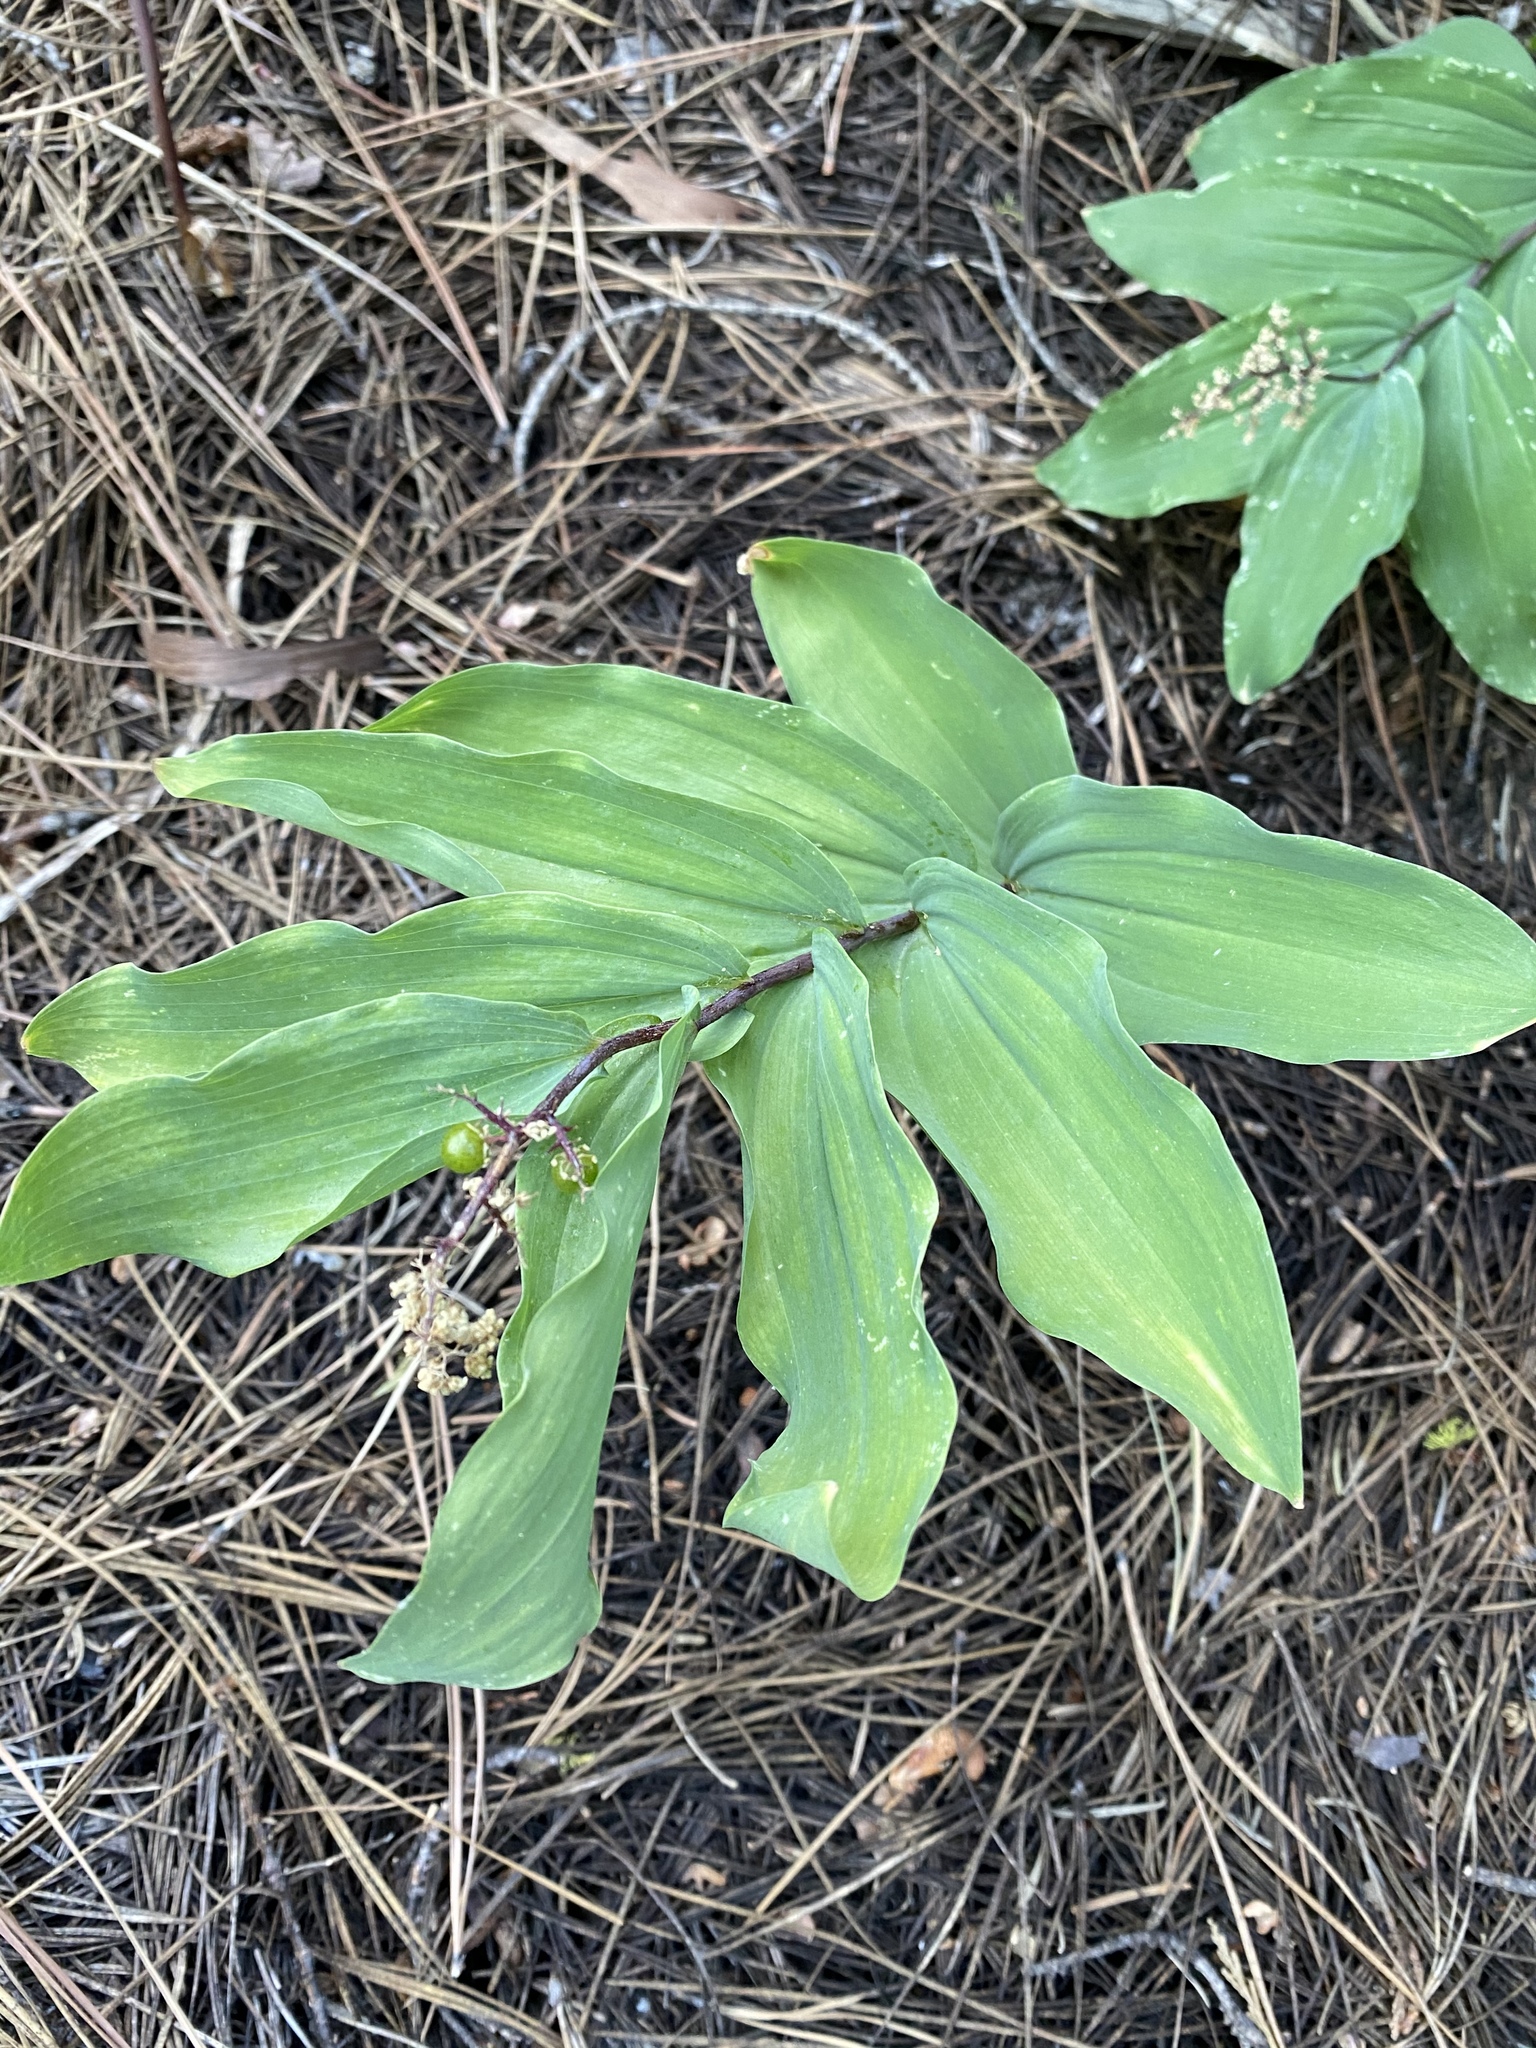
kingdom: Plantae
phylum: Tracheophyta
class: Liliopsida
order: Asparagales
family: Asparagaceae
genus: Maianthemum
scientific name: Maianthemum racemosum
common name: False spikenard
